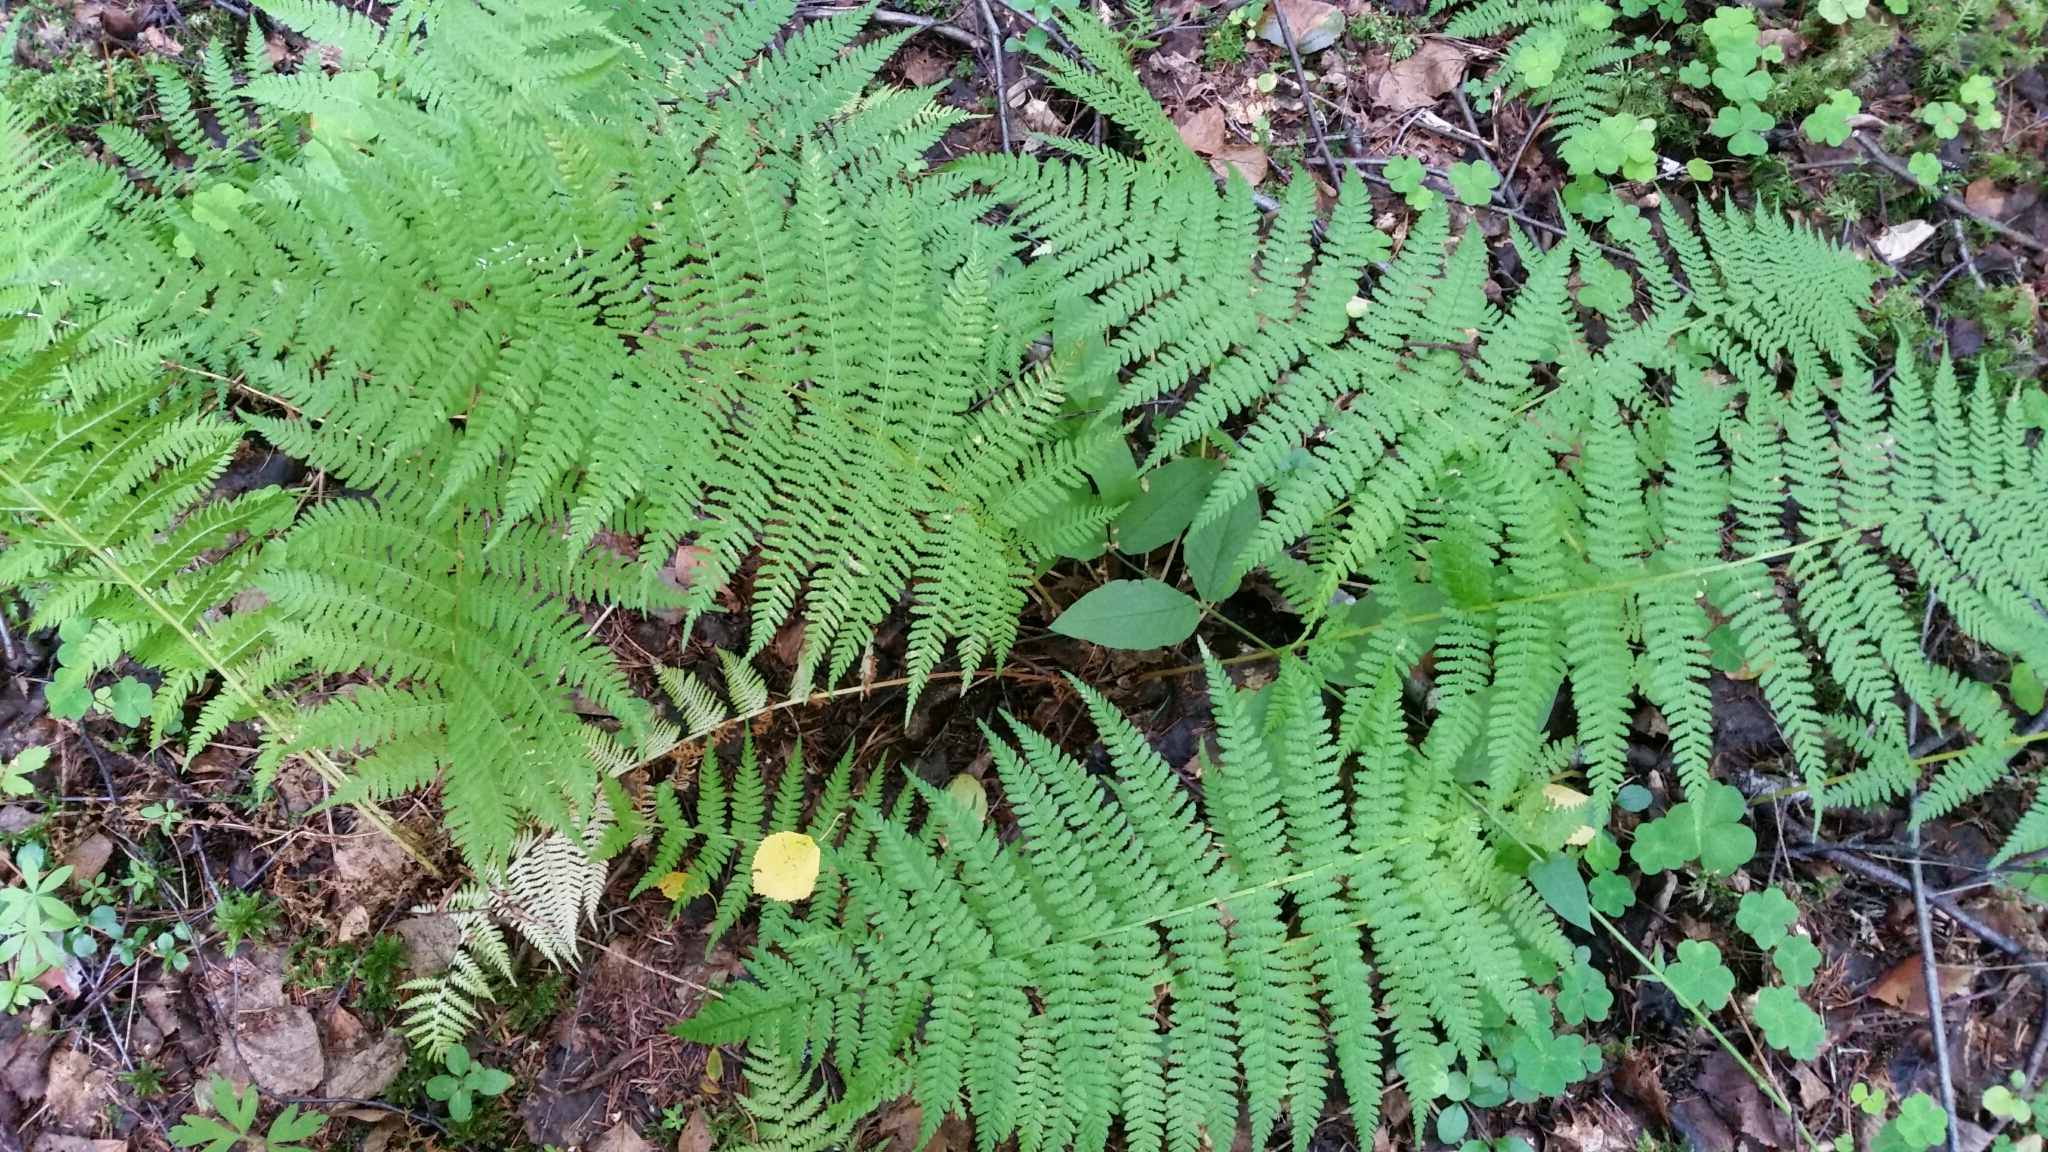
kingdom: Plantae
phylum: Tracheophyta
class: Polypodiopsida
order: Polypodiales
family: Athyriaceae
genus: Athyrium
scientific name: Athyrium filix-femina
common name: Lady fern
